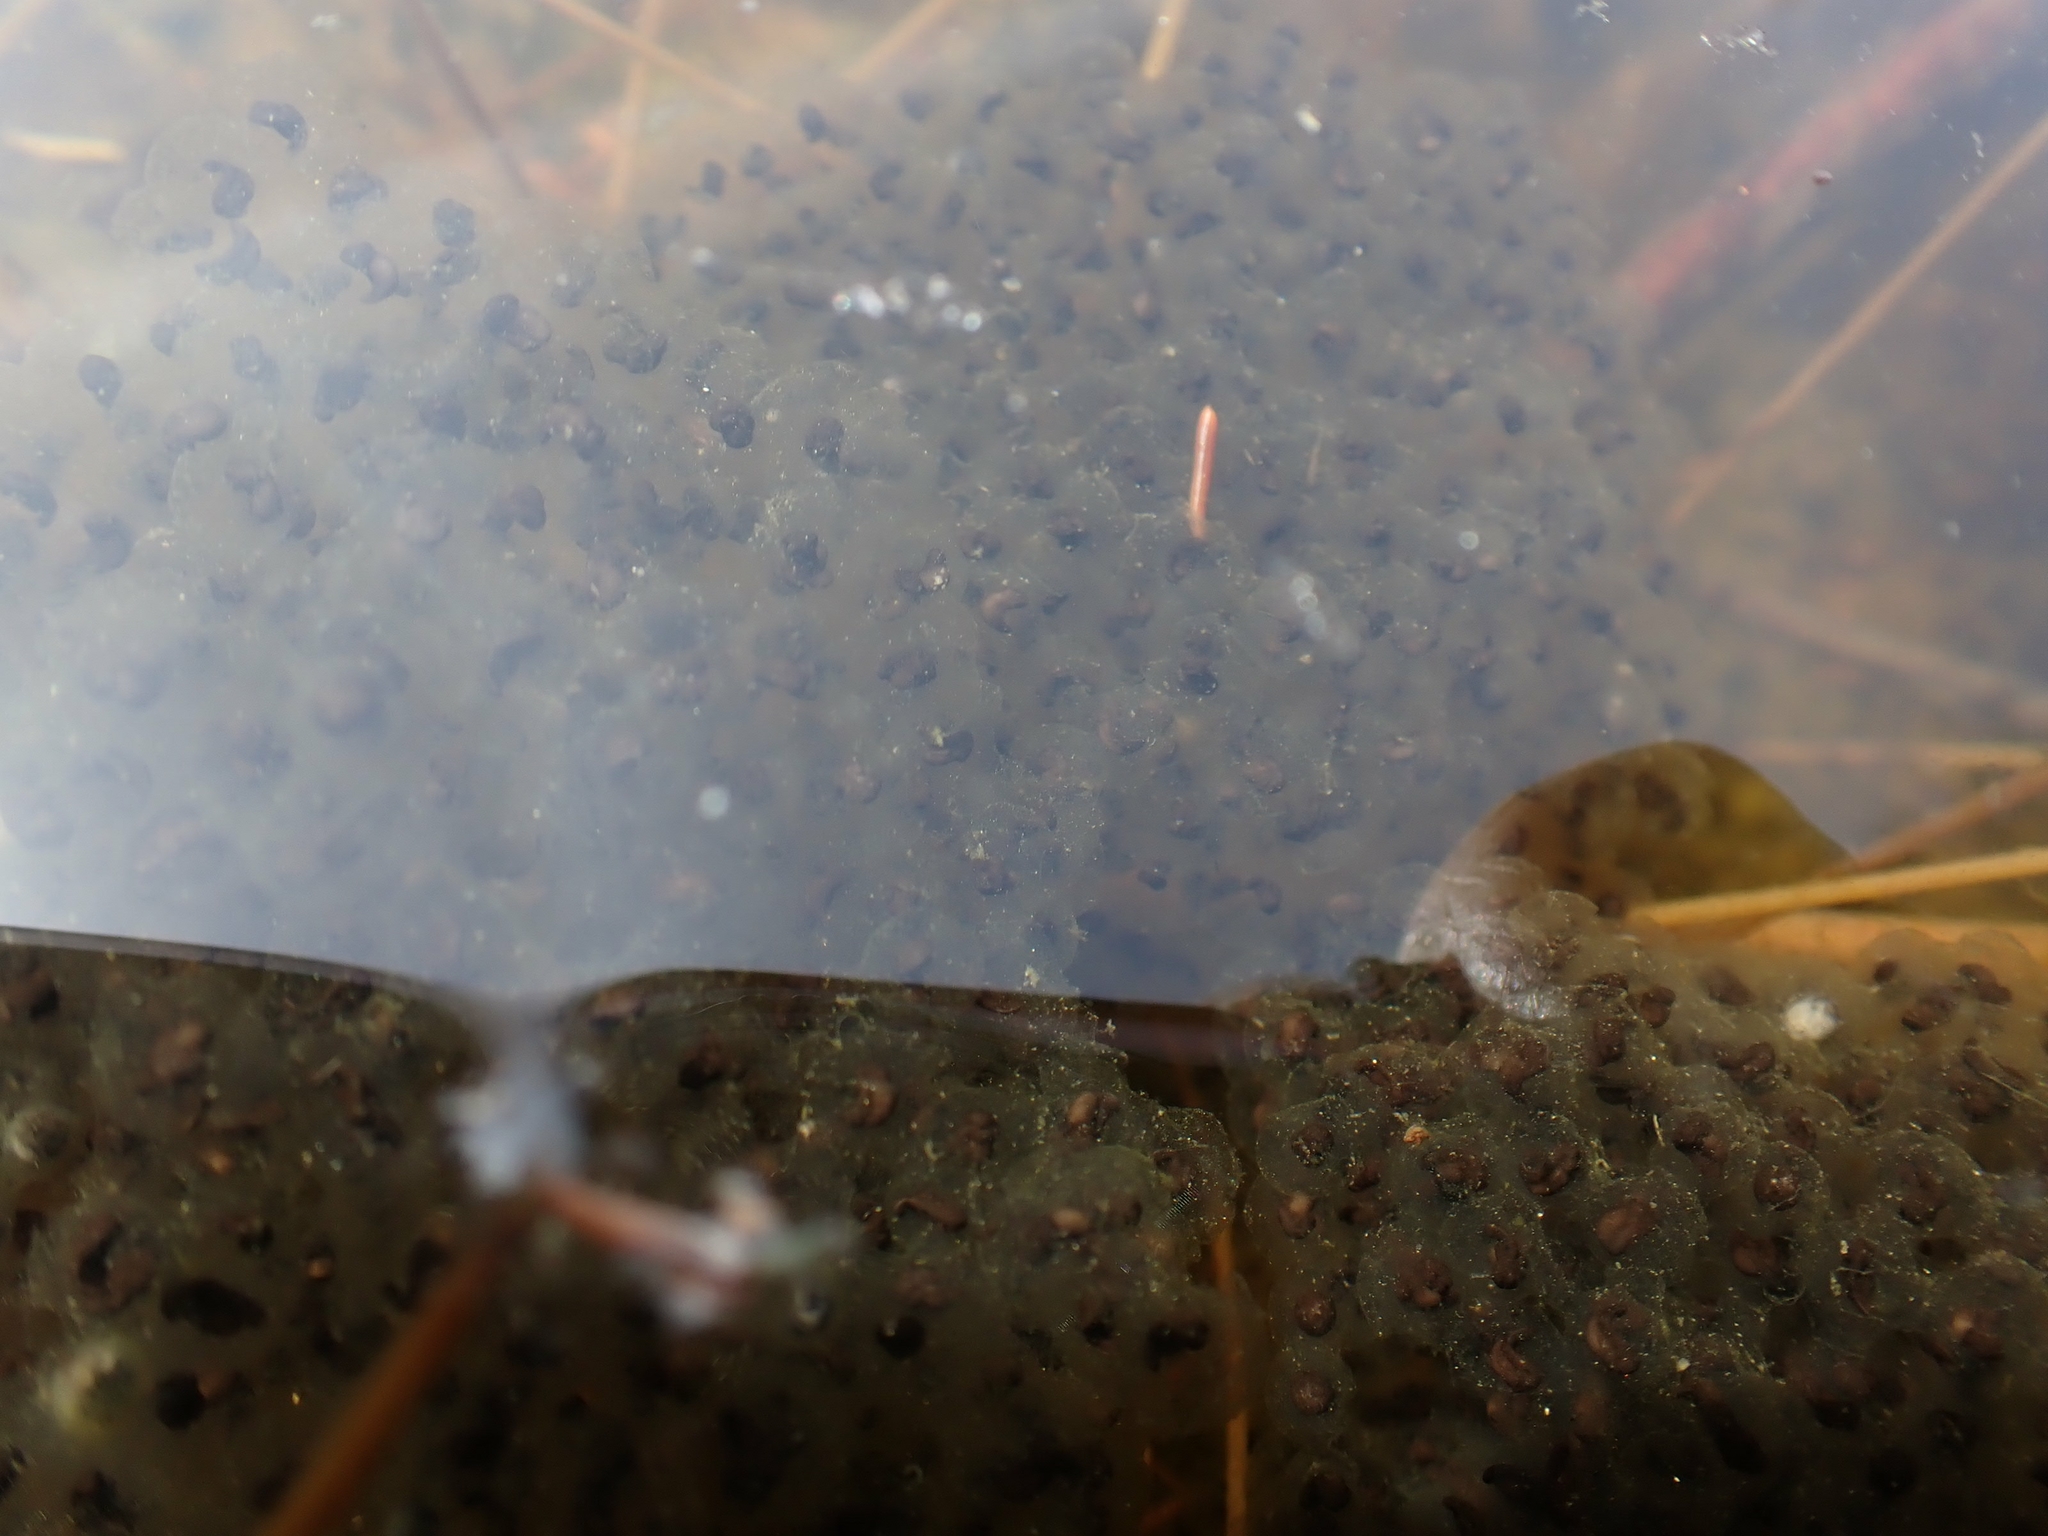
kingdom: Animalia
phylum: Chordata
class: Amphibia
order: Anura
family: Ranidae
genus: Lithobates
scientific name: Lithobates sylvaticus
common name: Wood frog
